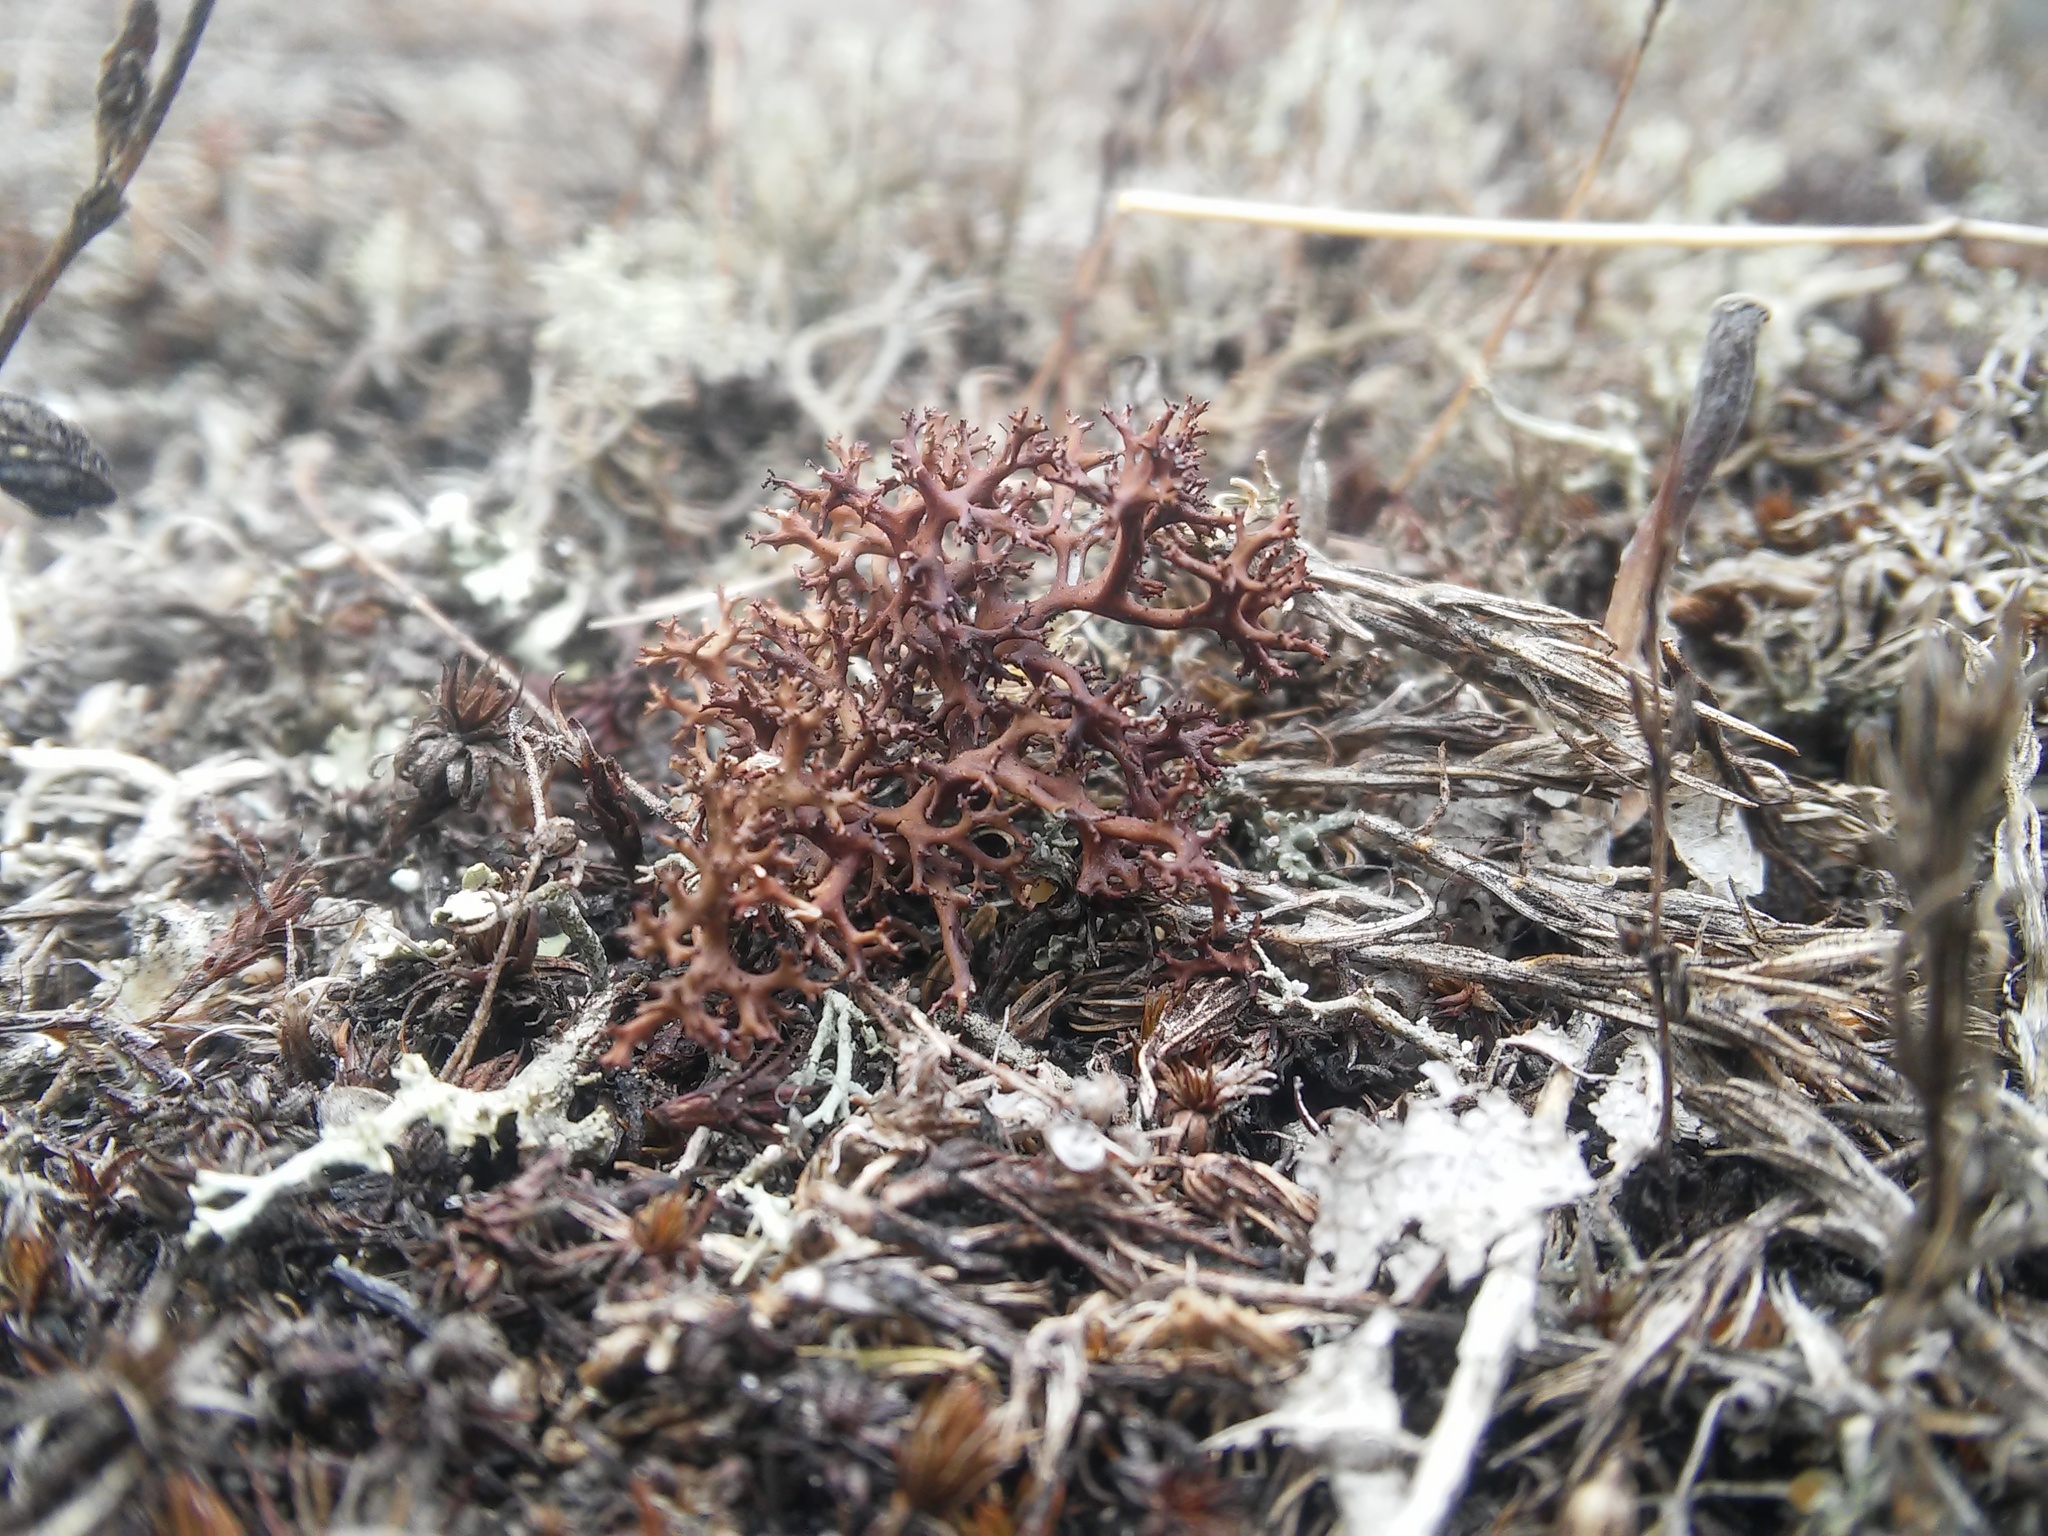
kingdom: Fungi
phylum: Ascomycota
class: Lecanoromycetes
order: Lecanorales
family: Parmeliaceae
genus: Cetraria
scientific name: Cetraria aculeata
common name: Spiny heath lichen
